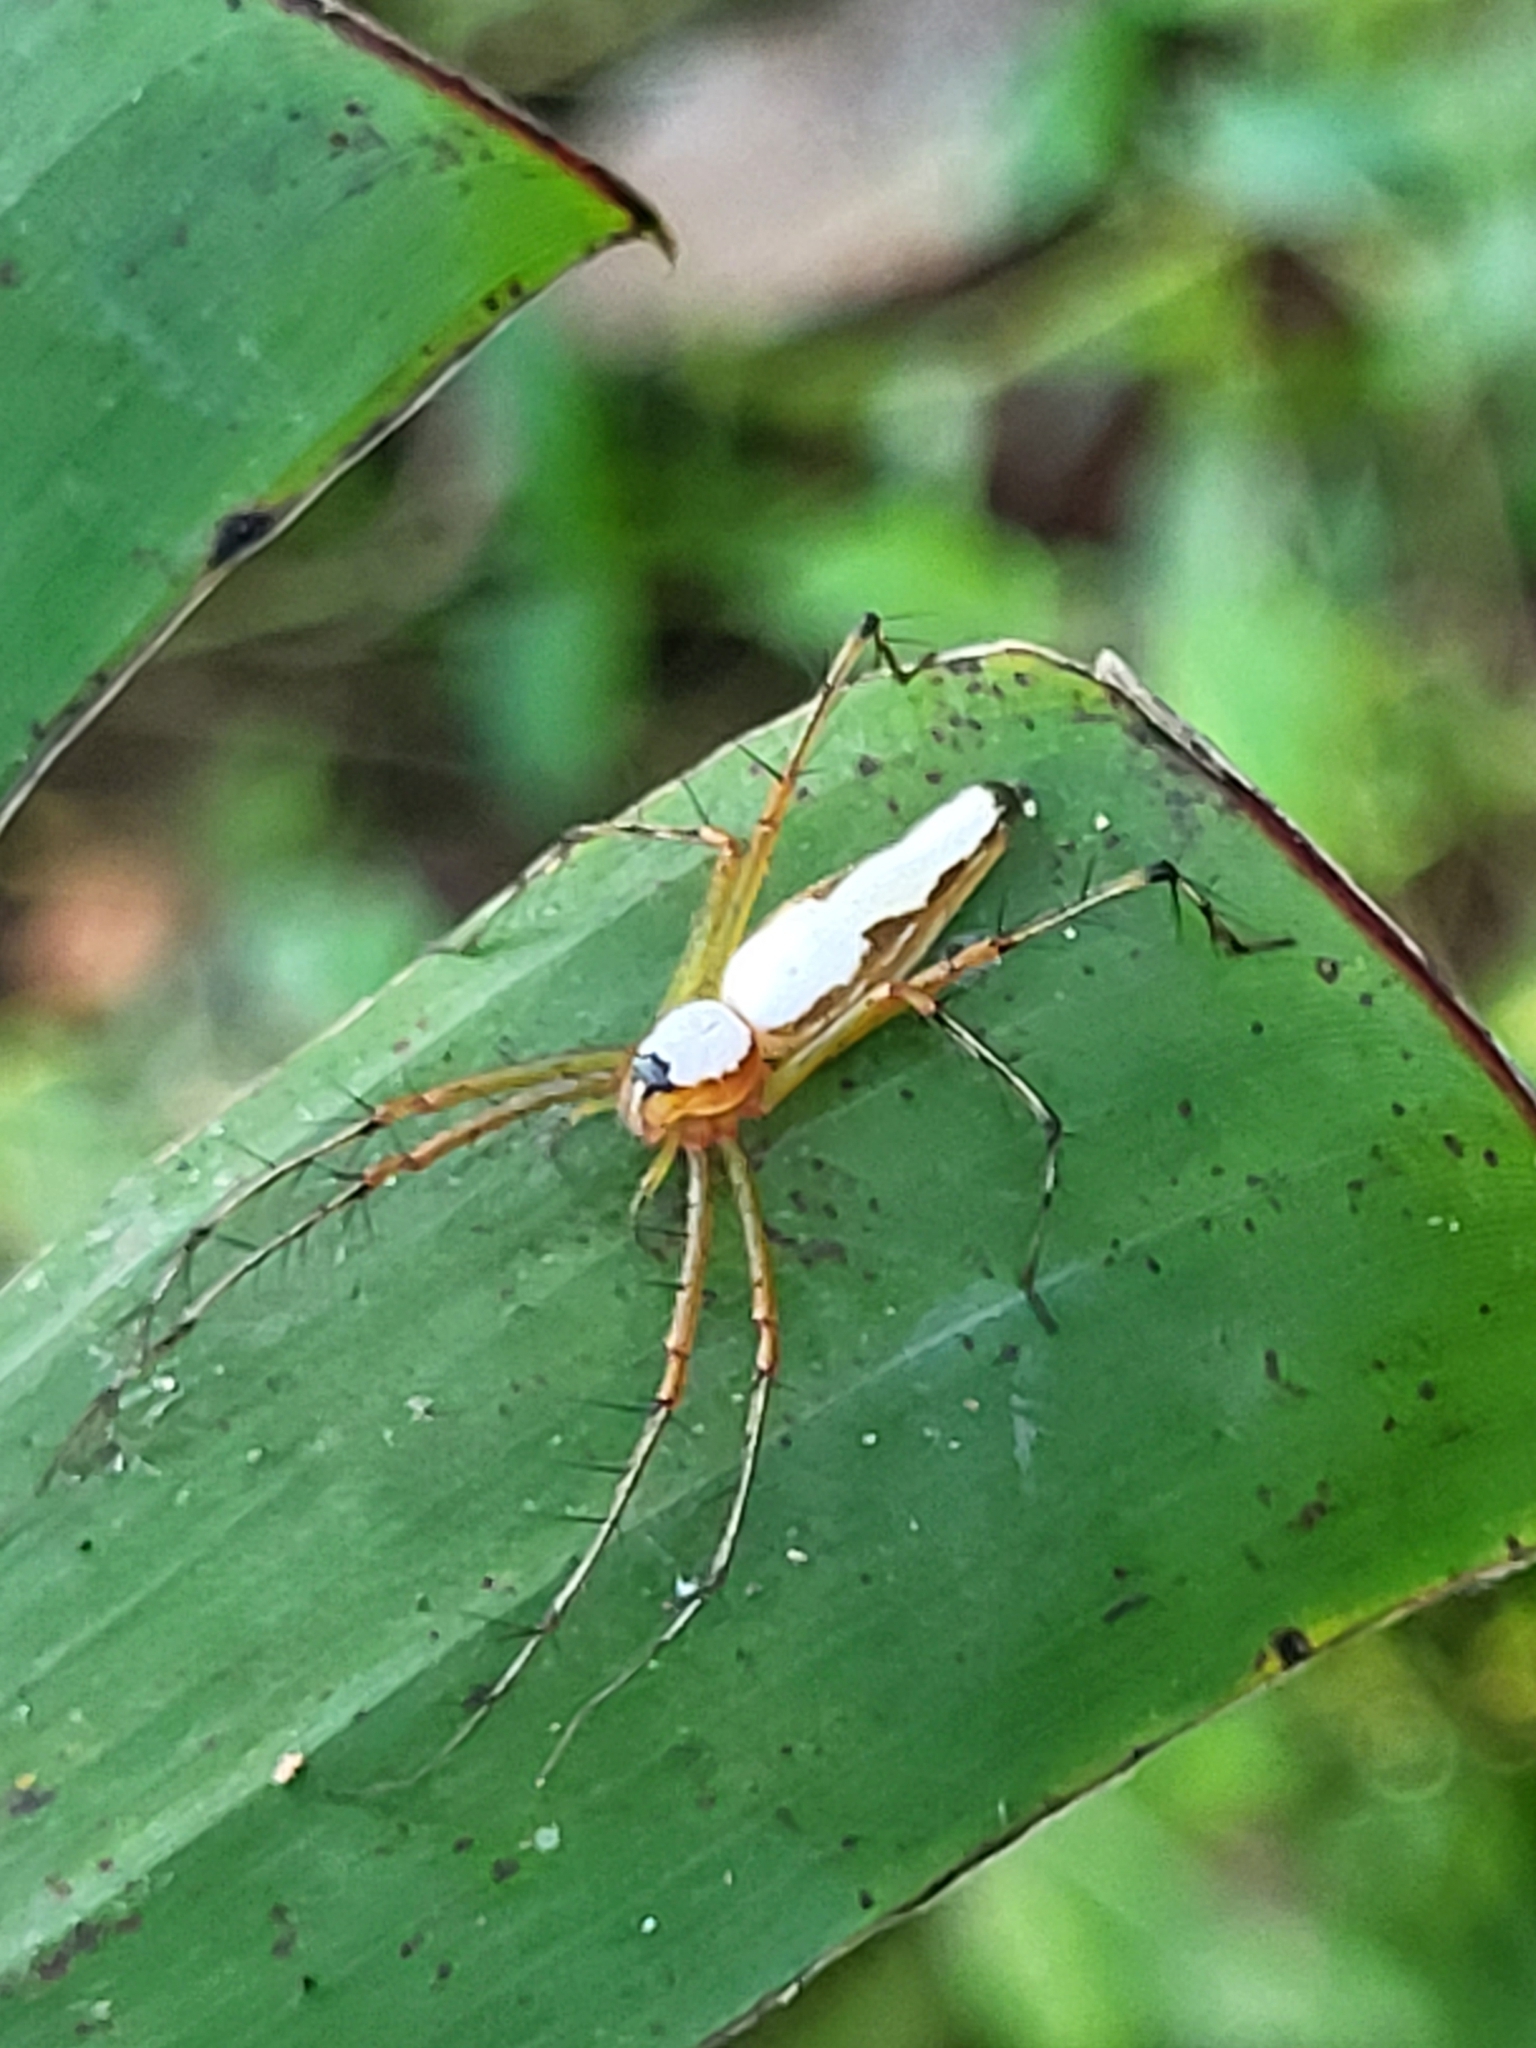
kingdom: Animalia
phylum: Arthropoda
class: Arachnida
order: Araneae
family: Oxyopidae
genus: Oxyopes
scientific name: Oxyopes shweta
